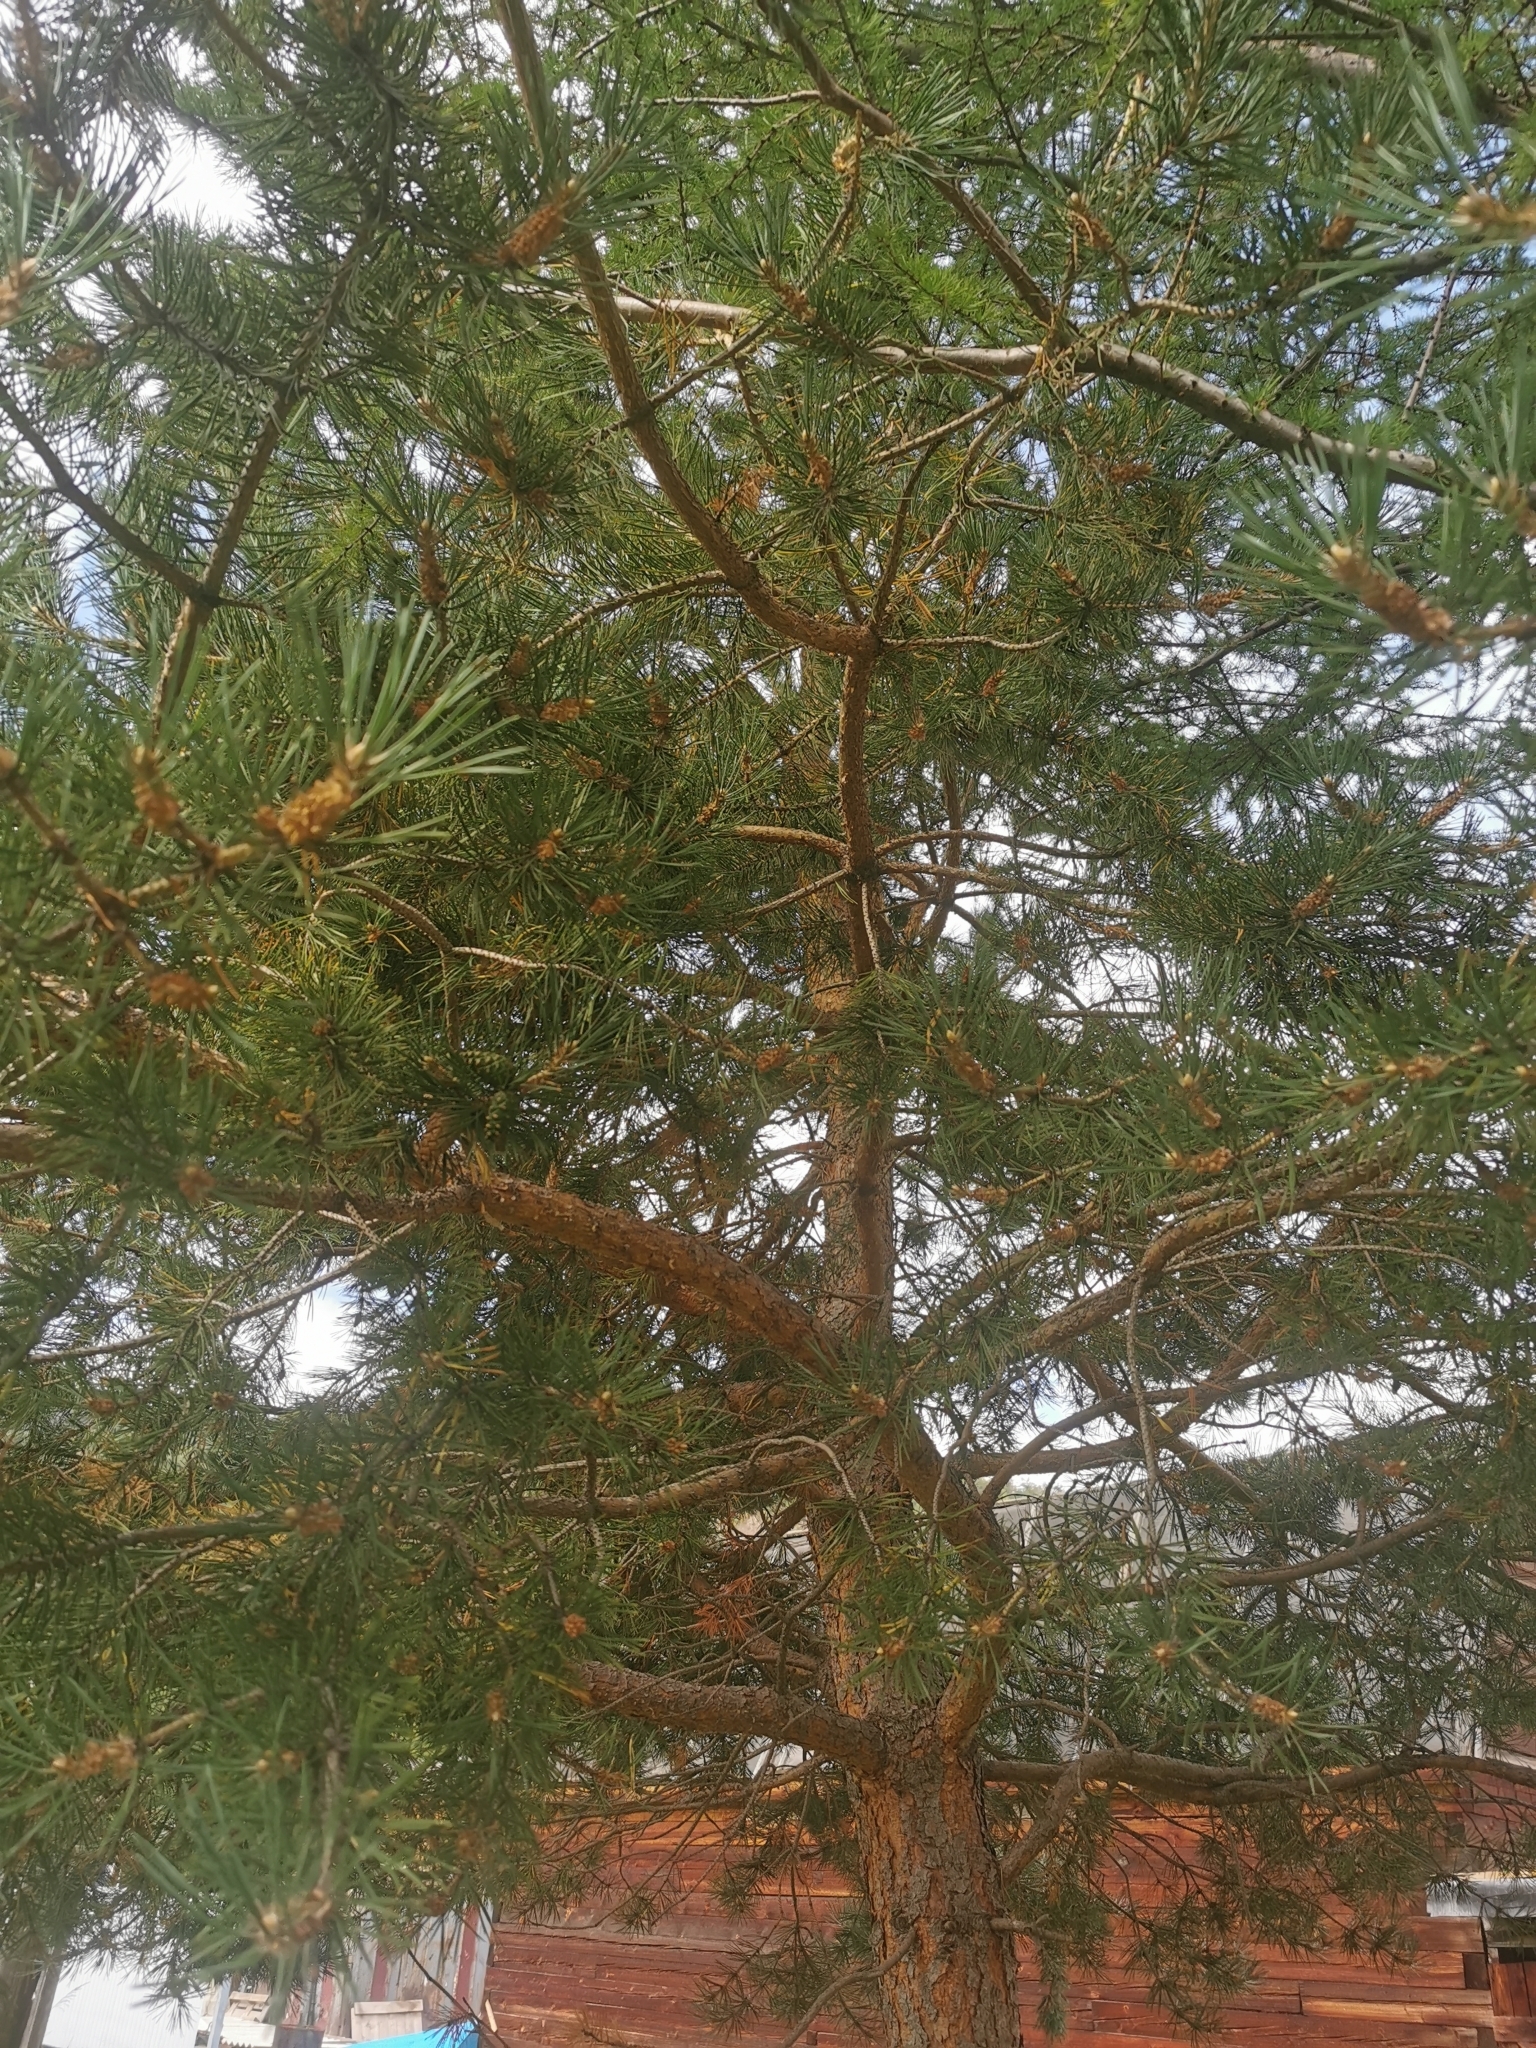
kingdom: Plantae
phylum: Tracheophyta
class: Pinopsida
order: Pinales
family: Pinaceae
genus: Pinus
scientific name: Pinus sylvestris
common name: Scots pine
